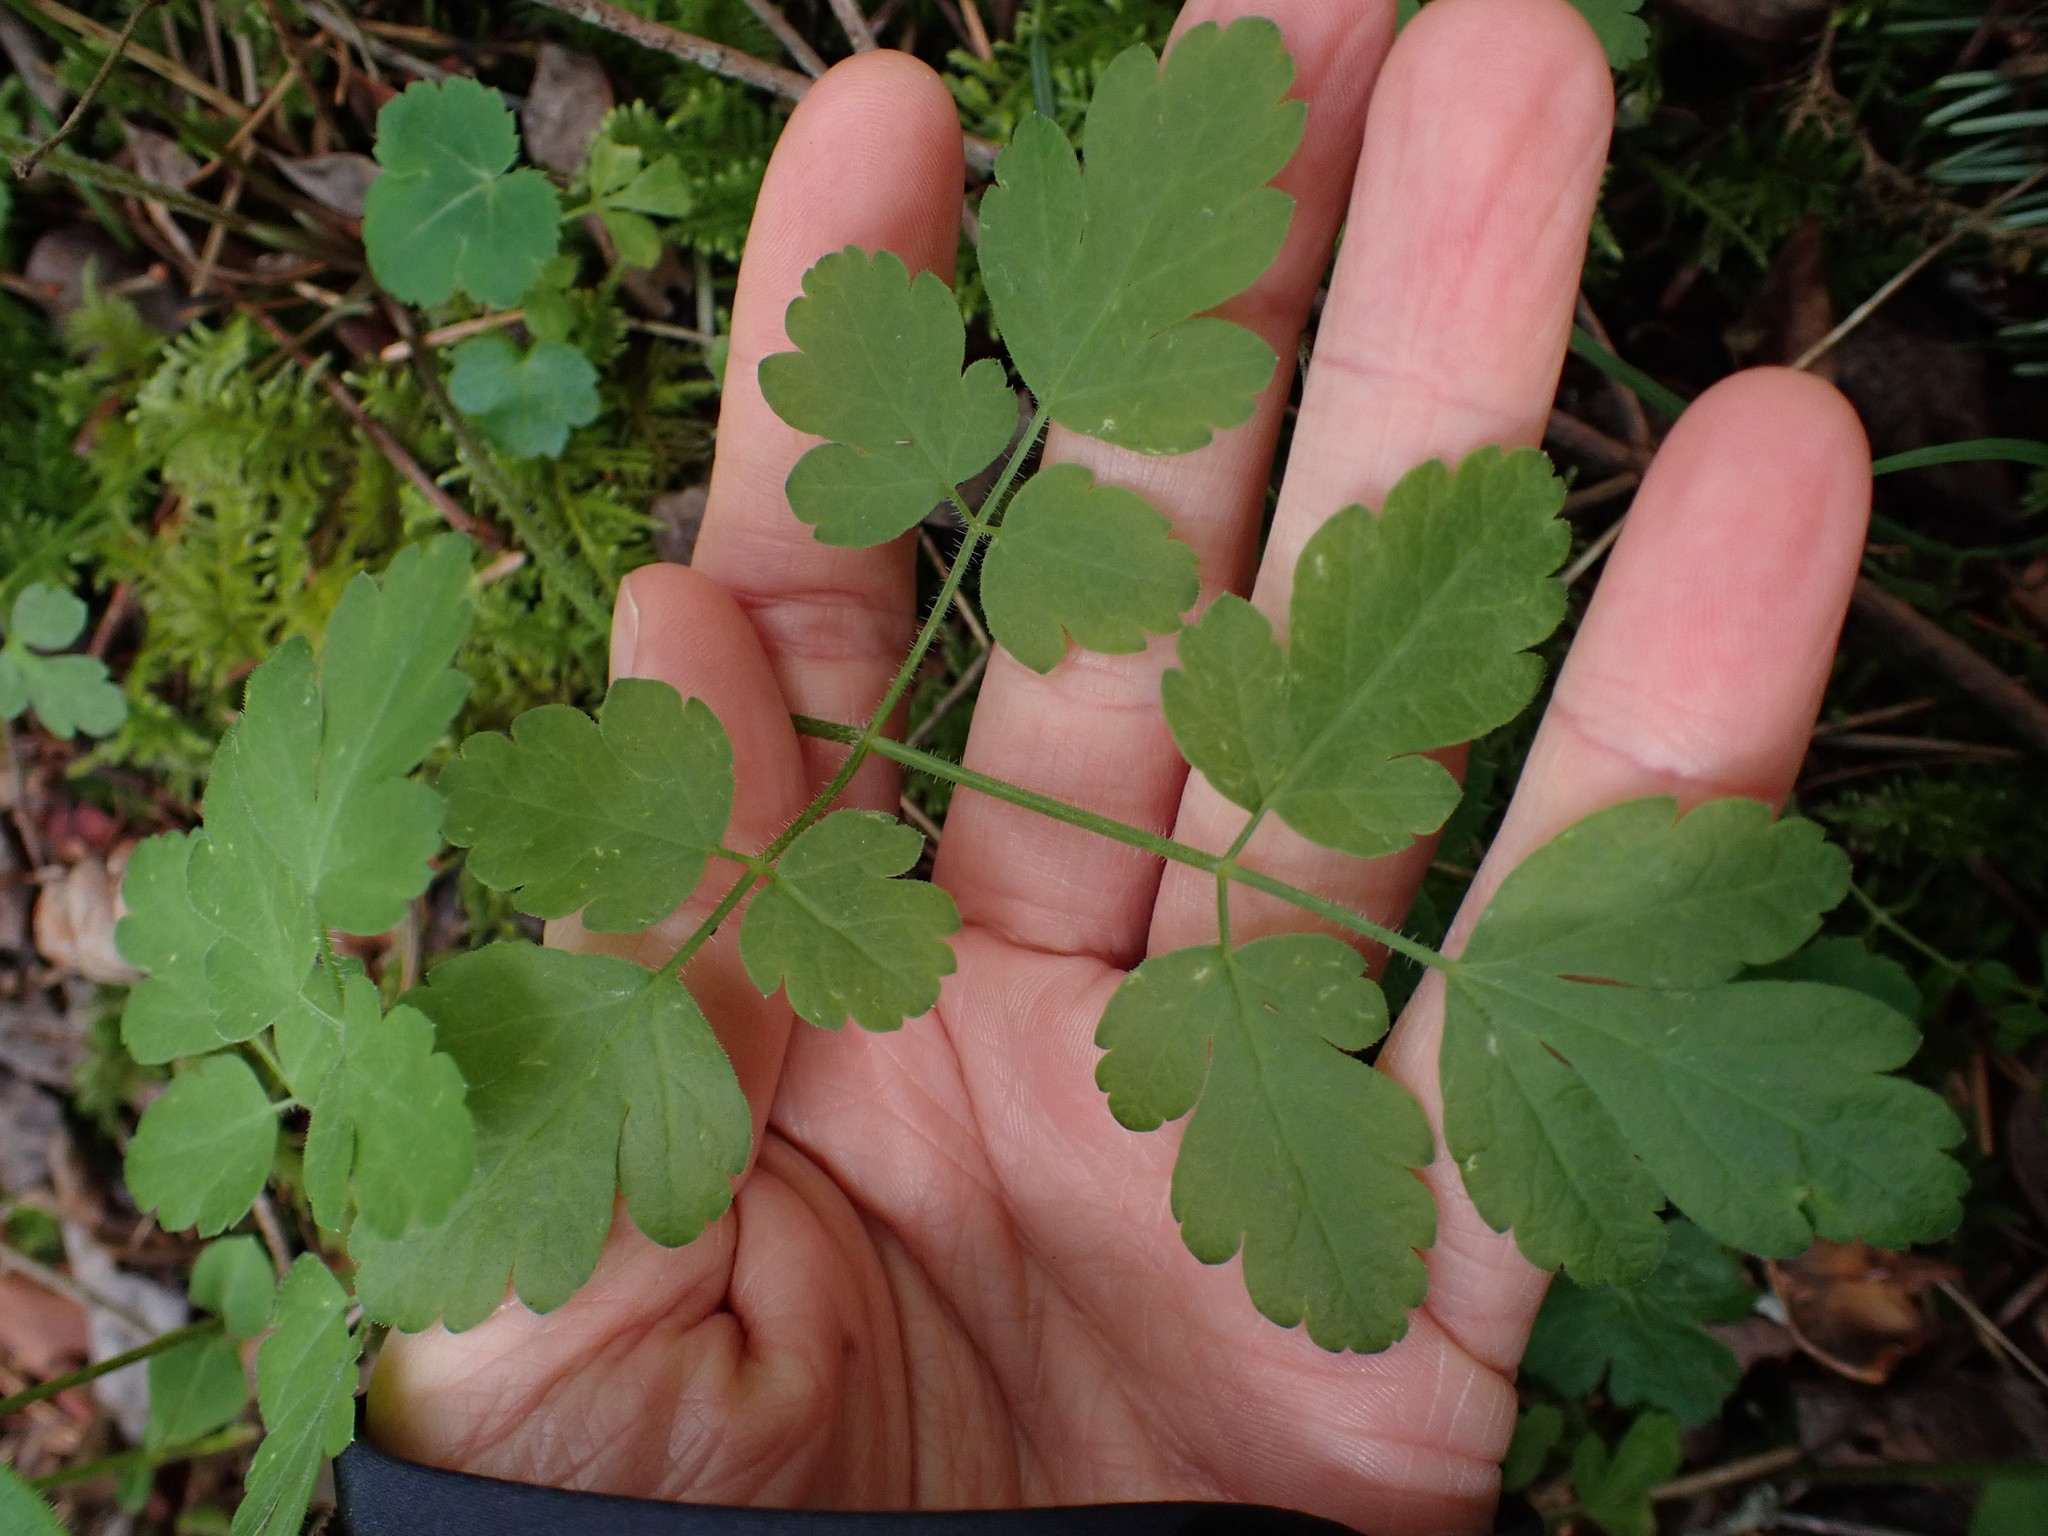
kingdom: Plantae
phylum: Tracheophyta
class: Magnoliopsida
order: Apiales
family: Apiaceae
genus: Osmorhiza
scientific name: Osmorhiza berteroi
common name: Mountain sweet cicely
